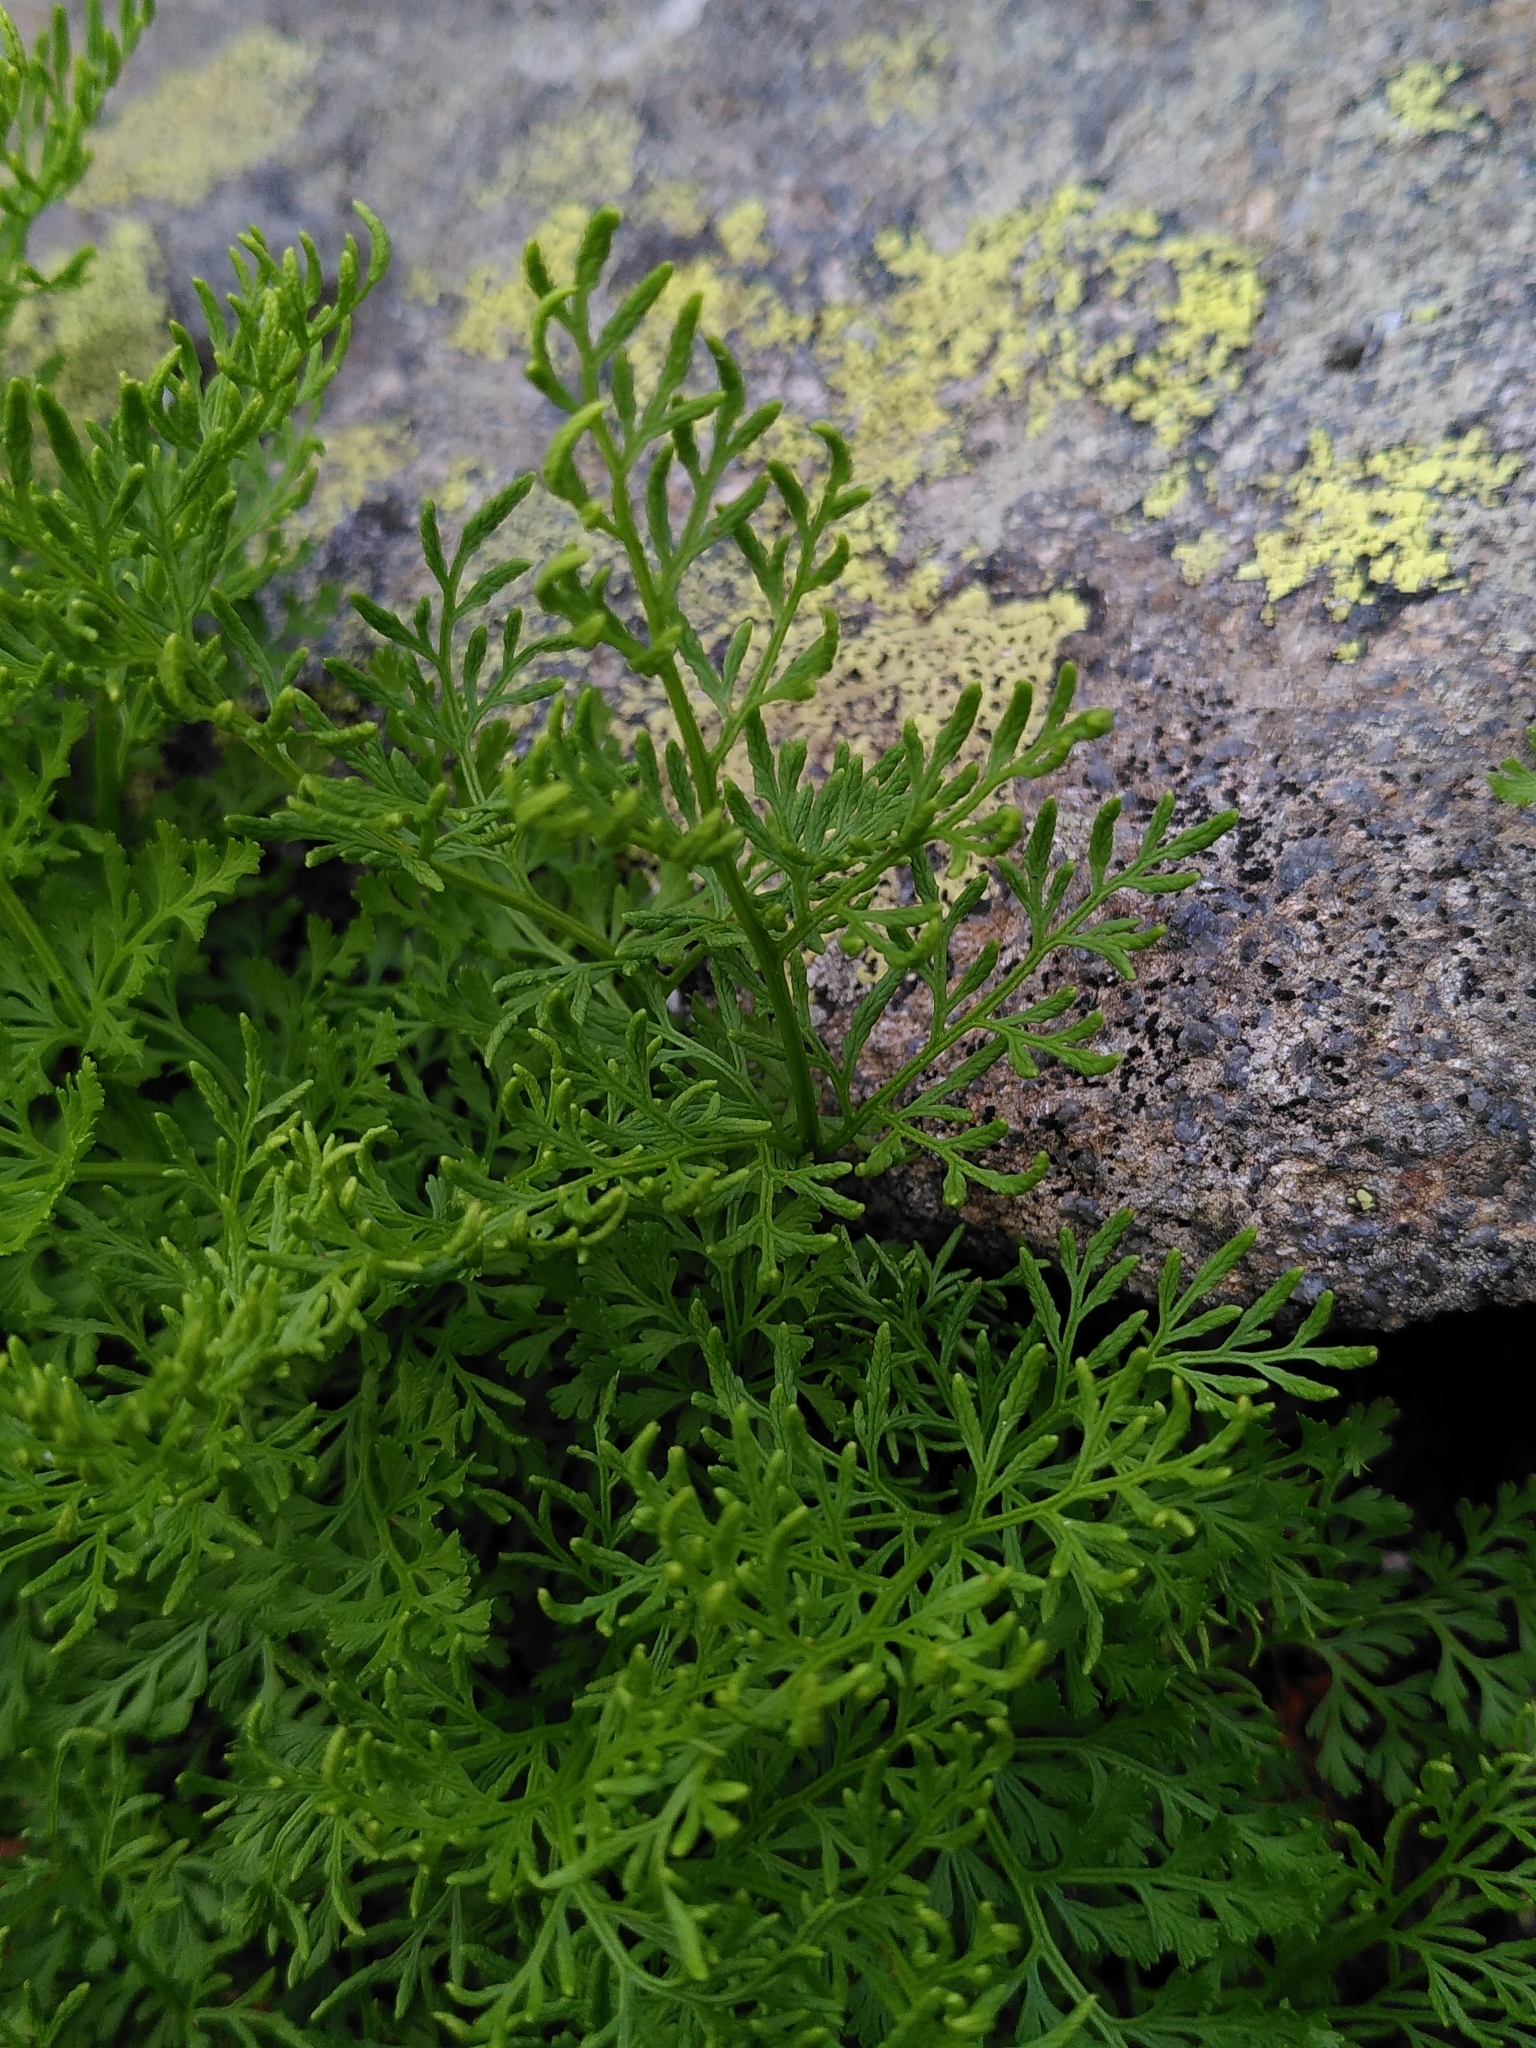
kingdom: Plantae
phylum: Tracheophyta
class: Polypodiopsida
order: Polypodiales
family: Pteridaceae
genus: Cryptogramma
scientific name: Cryptogramma crispa
